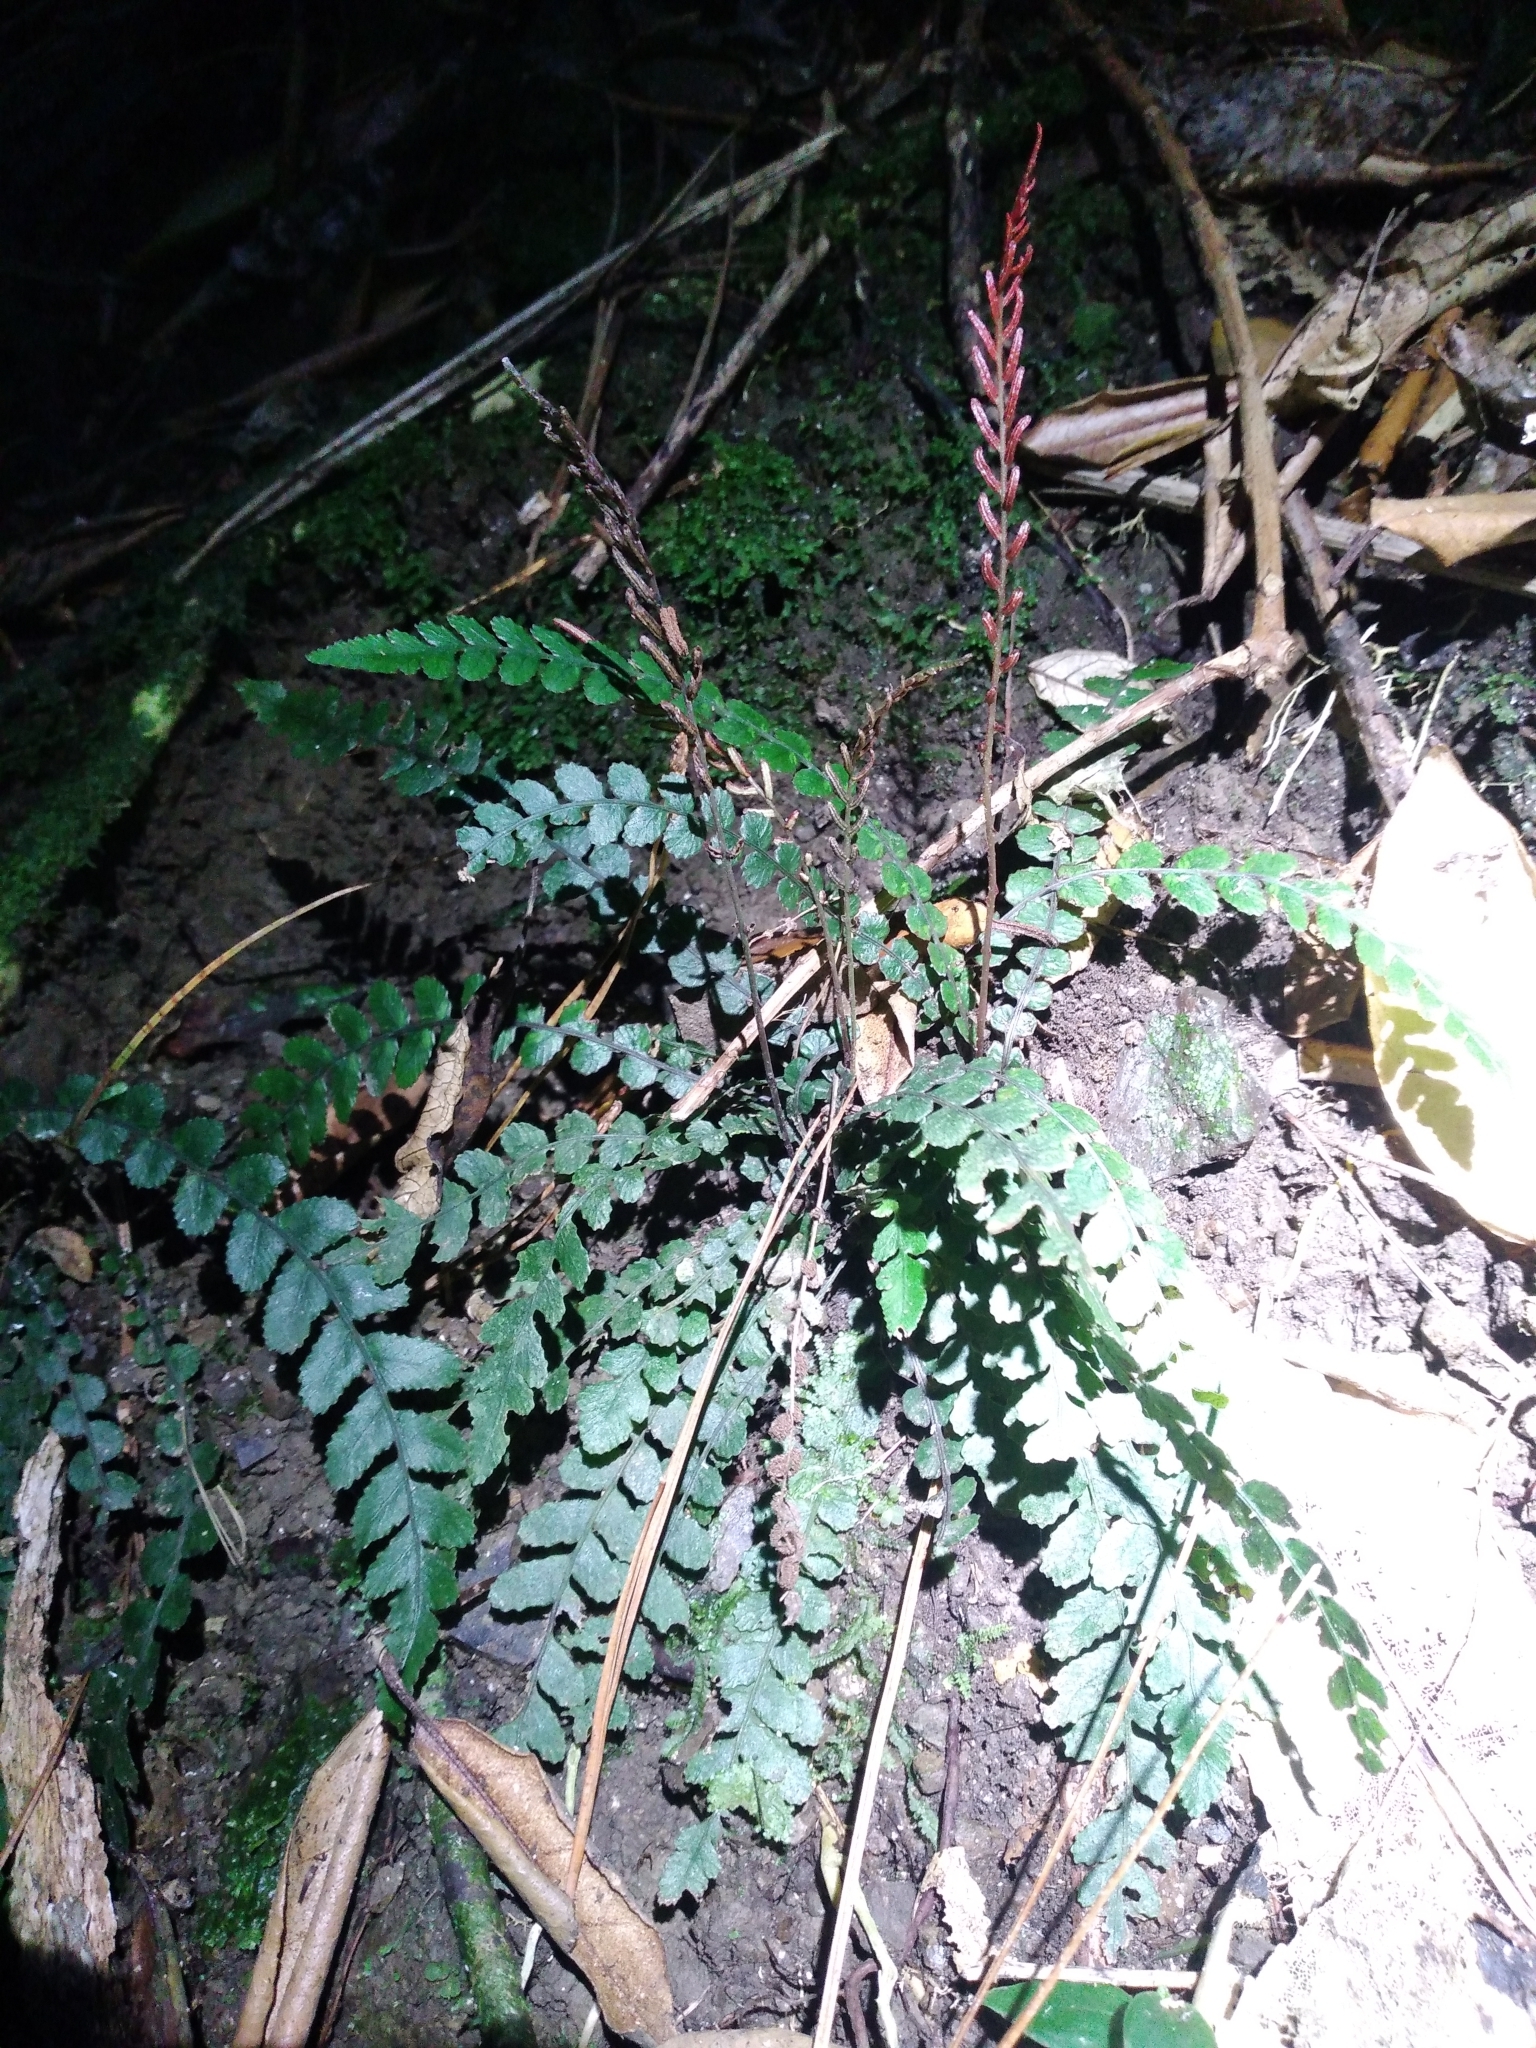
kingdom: Plantae
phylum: Tracheophyta
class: Polypodiopsida
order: Polypodiales
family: Blechnaceae
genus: Austroblechnum
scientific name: Austroblechnum membranaceum
